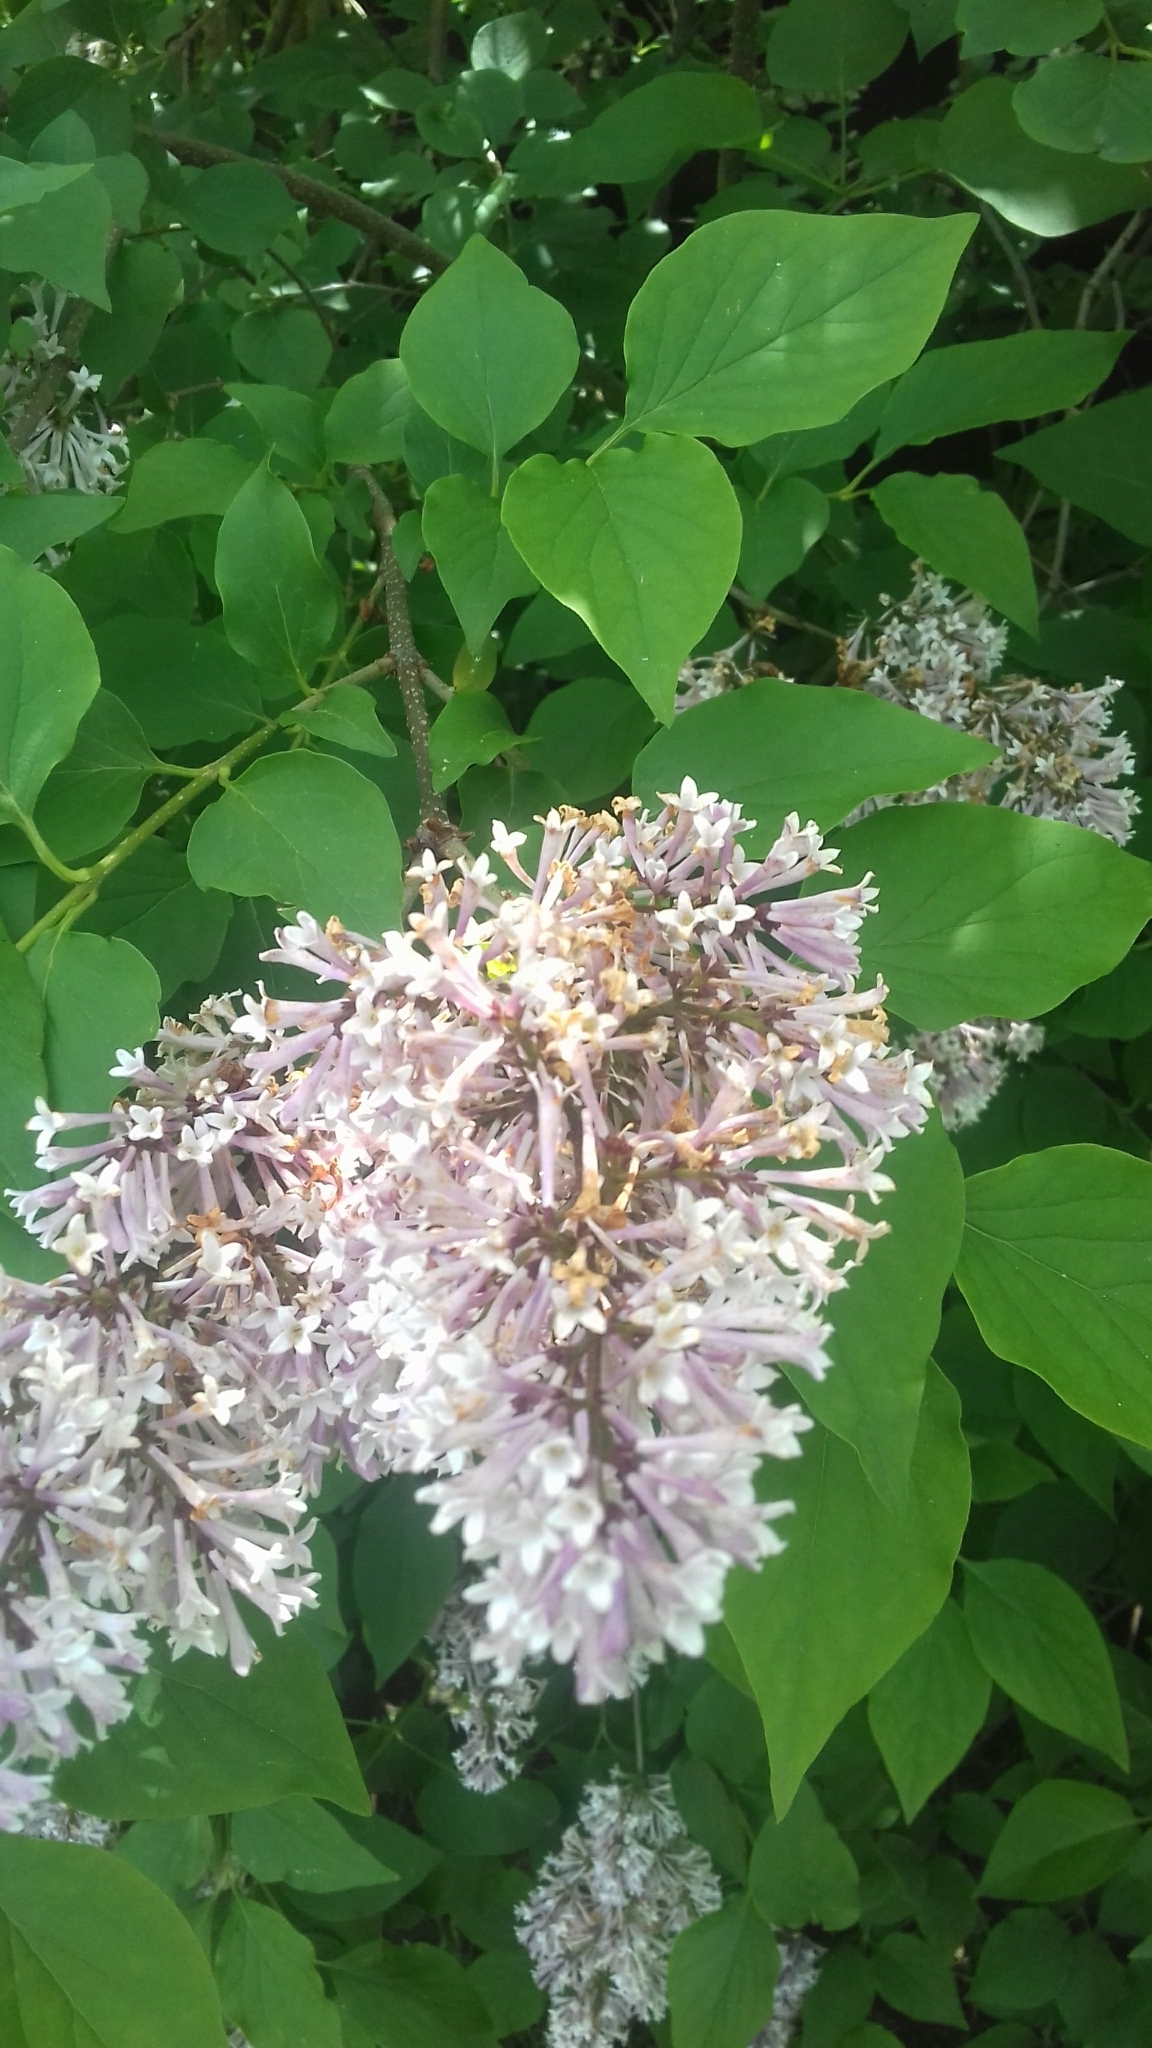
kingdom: Plantae
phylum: Tracheophyta
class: Magnoliopsida
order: Lamiales
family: Oleaceae
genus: Syringa
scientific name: Syringa vulgaris
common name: Common lilac
